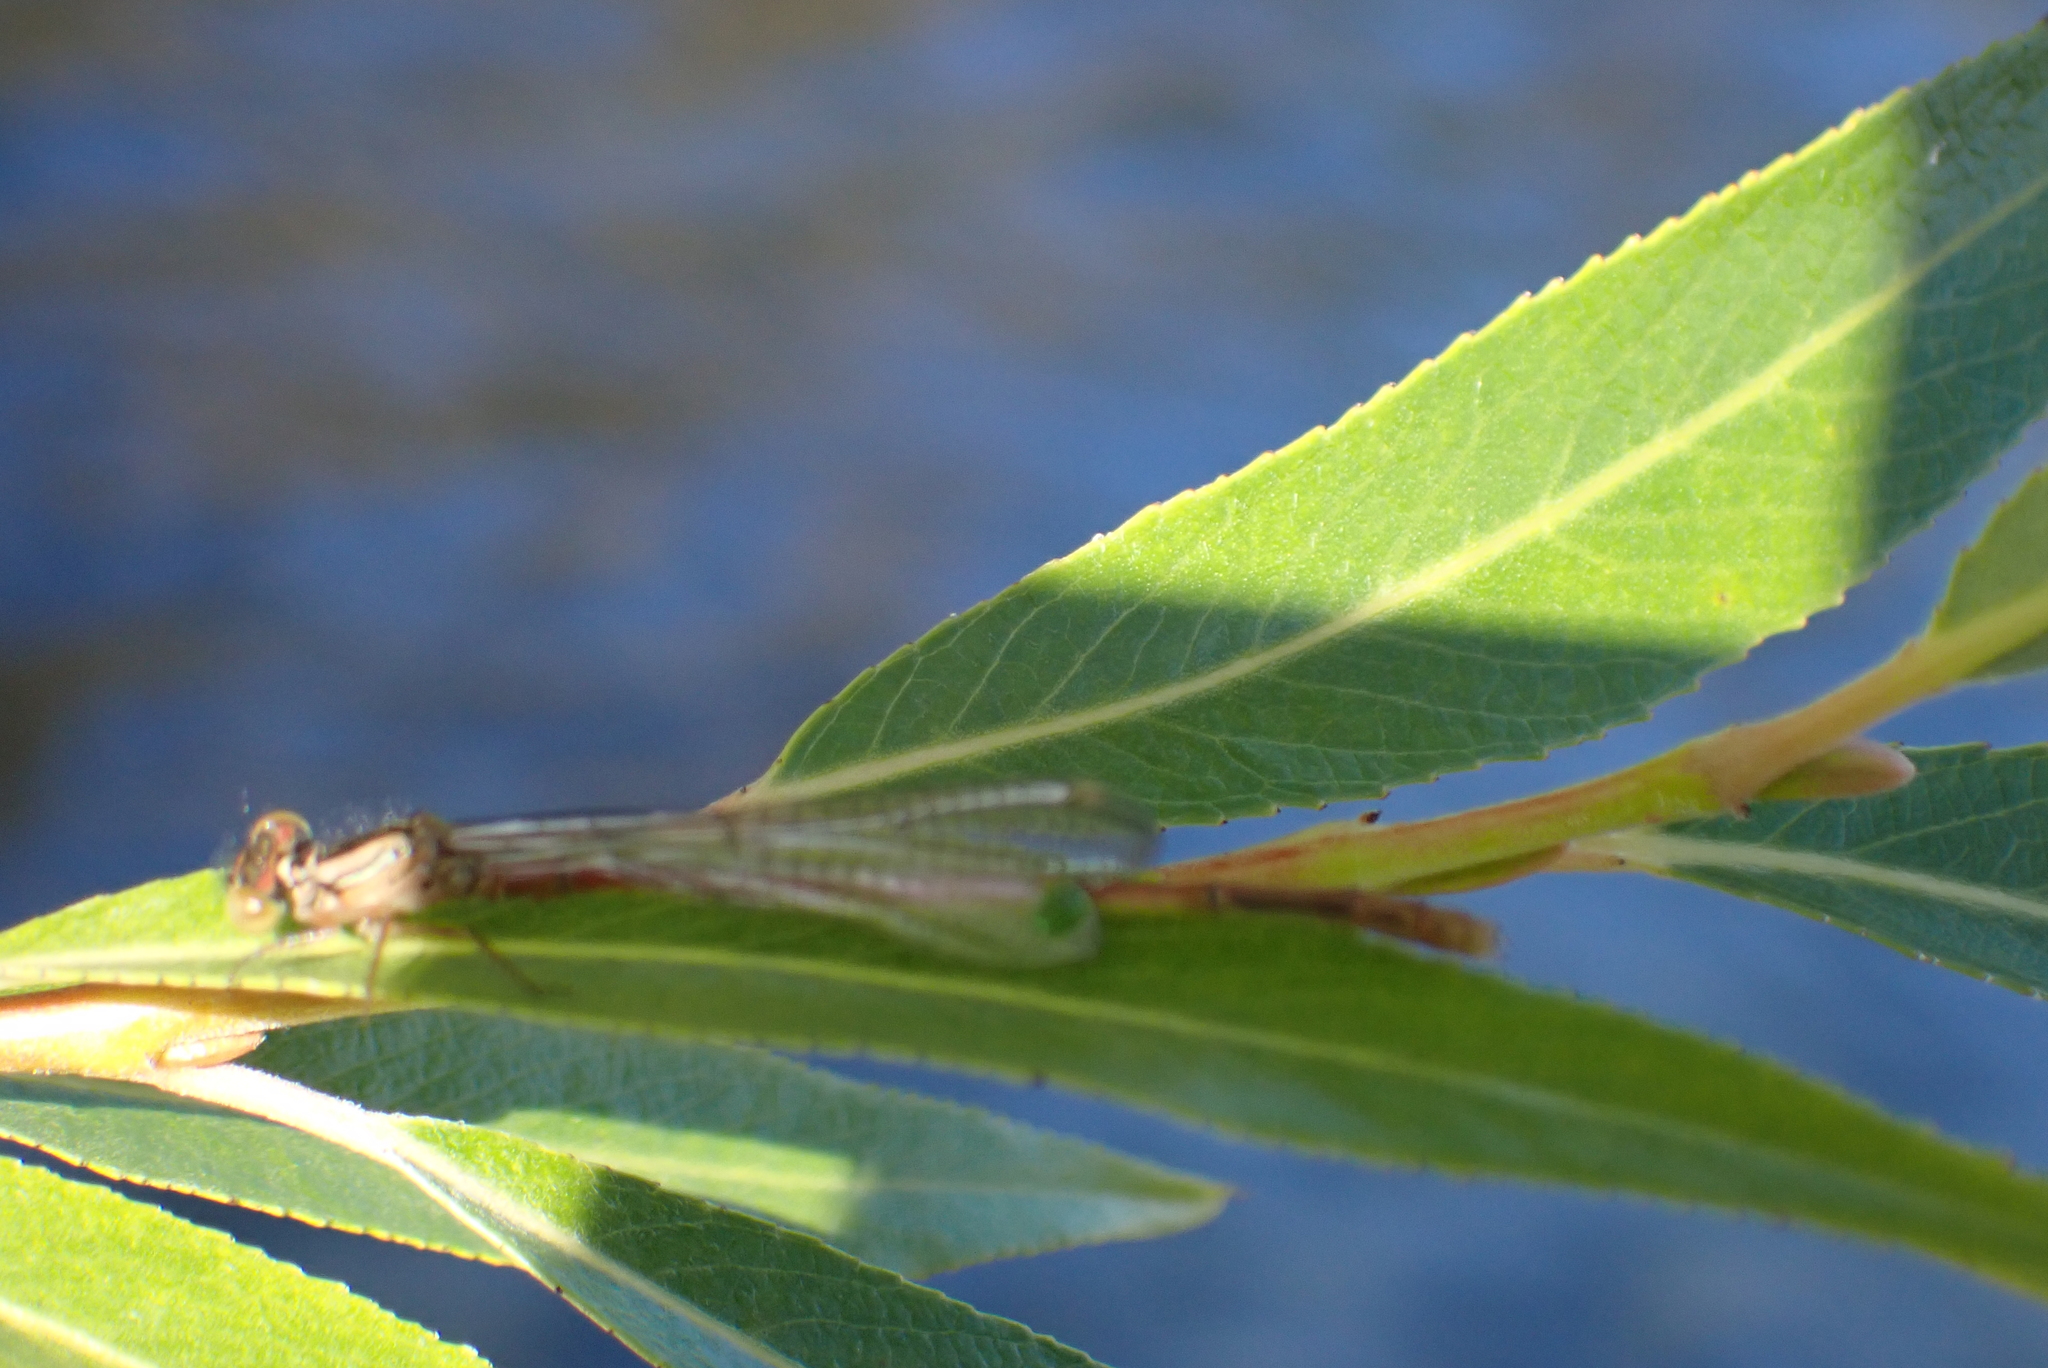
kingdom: Animalia
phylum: Arthropoda
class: Insecta
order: Odonata
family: Coenagrionidae
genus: Xanthocnemis
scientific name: Xanthocnemis zealandica
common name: Common redcoat damselfly
